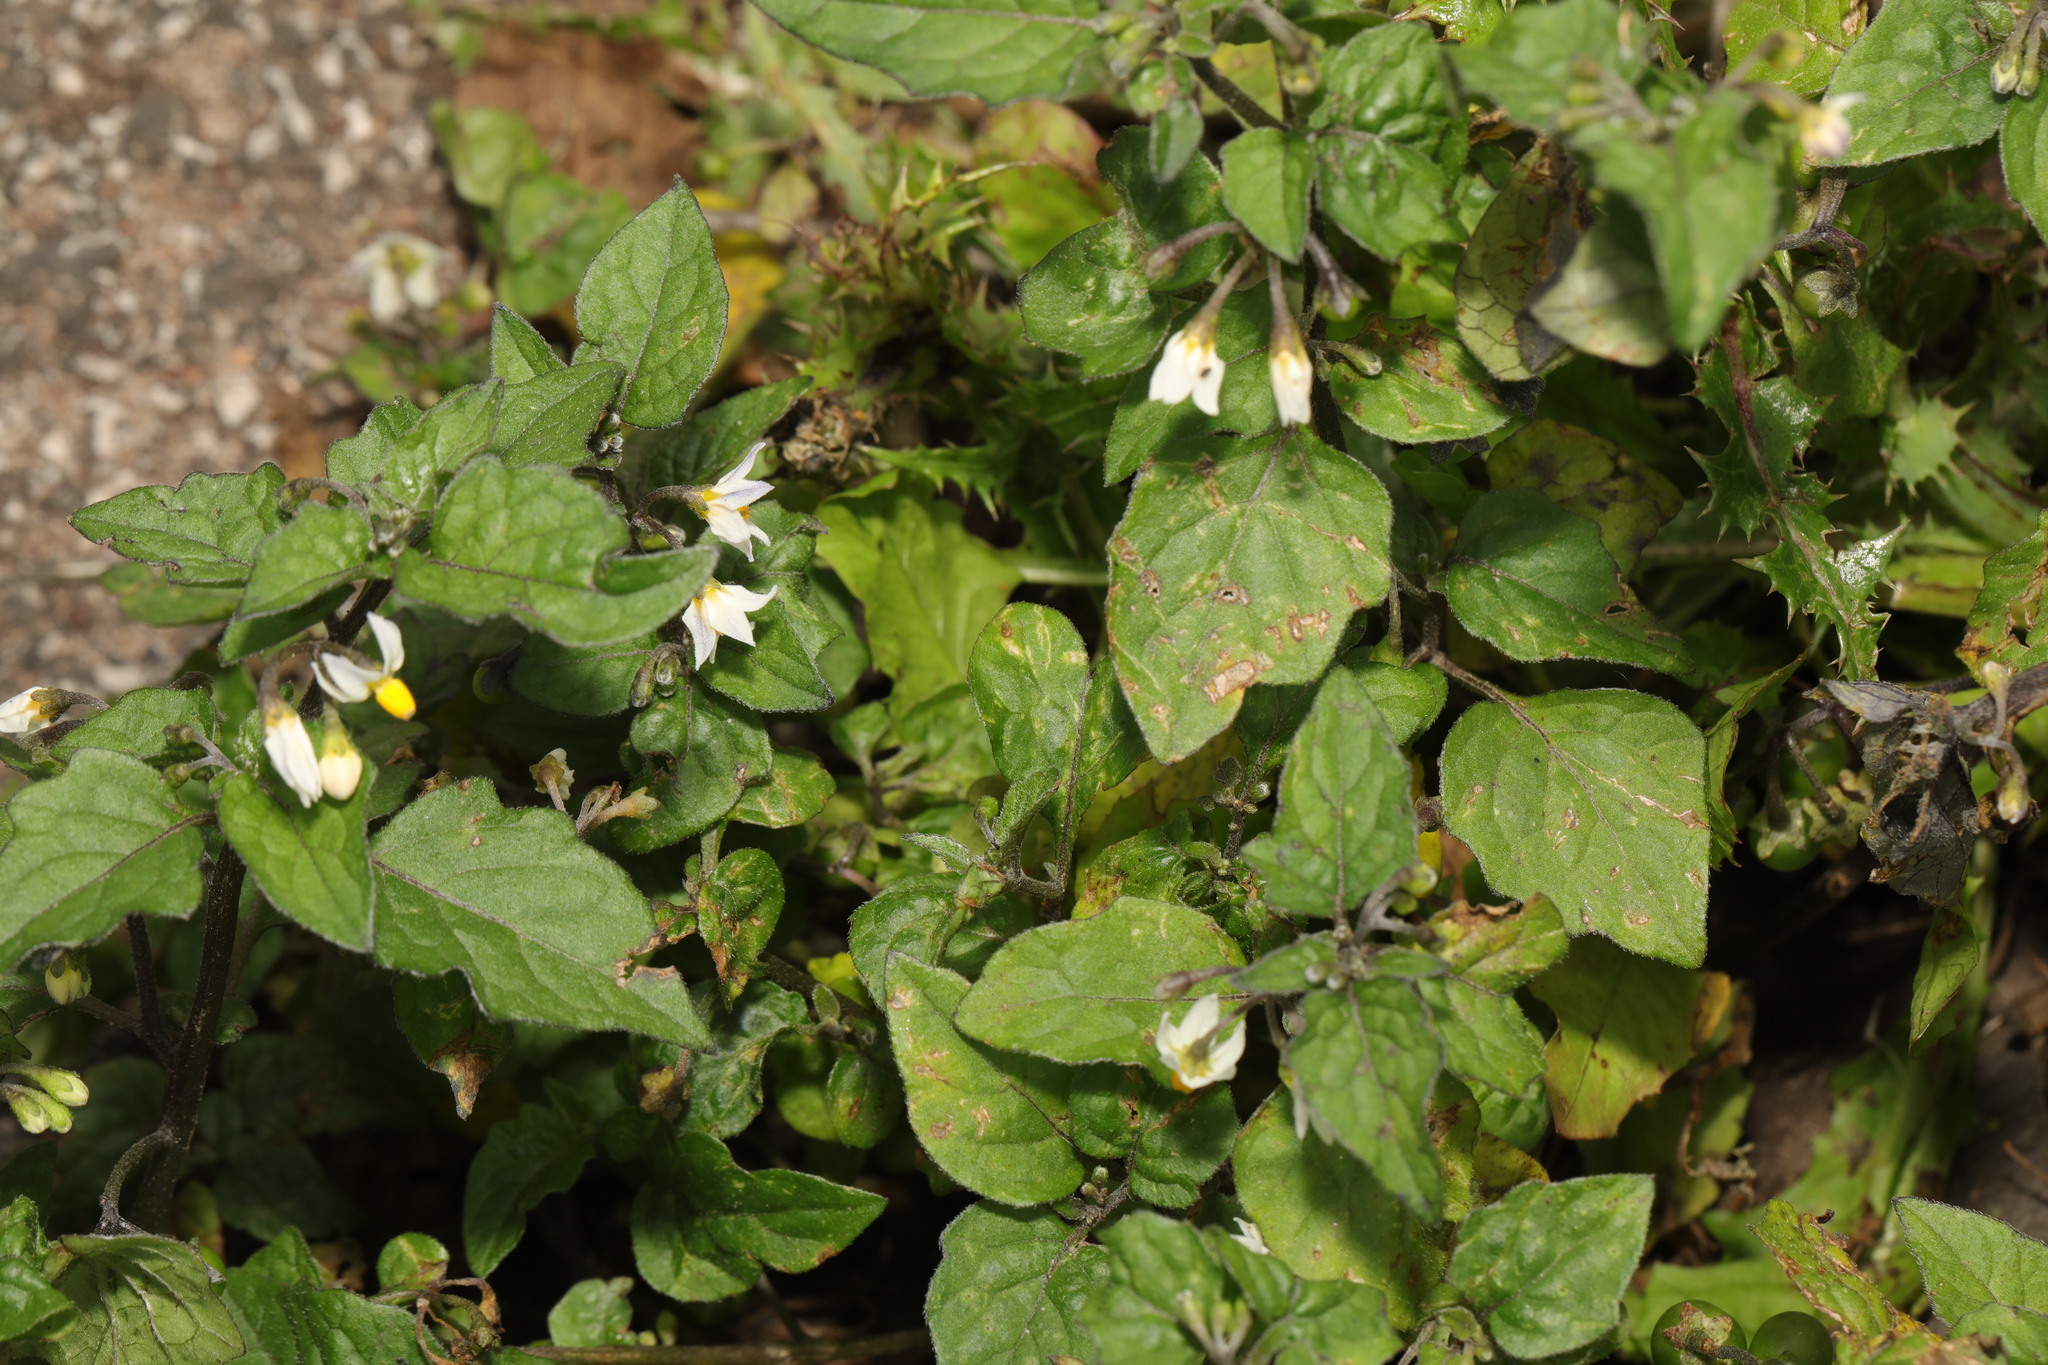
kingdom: Plantae
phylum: Tracheophyta
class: Magnoliopsida
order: Solanales
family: Solanaceae
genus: Solanum
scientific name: Solanum nigrum
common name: Black nightshade
